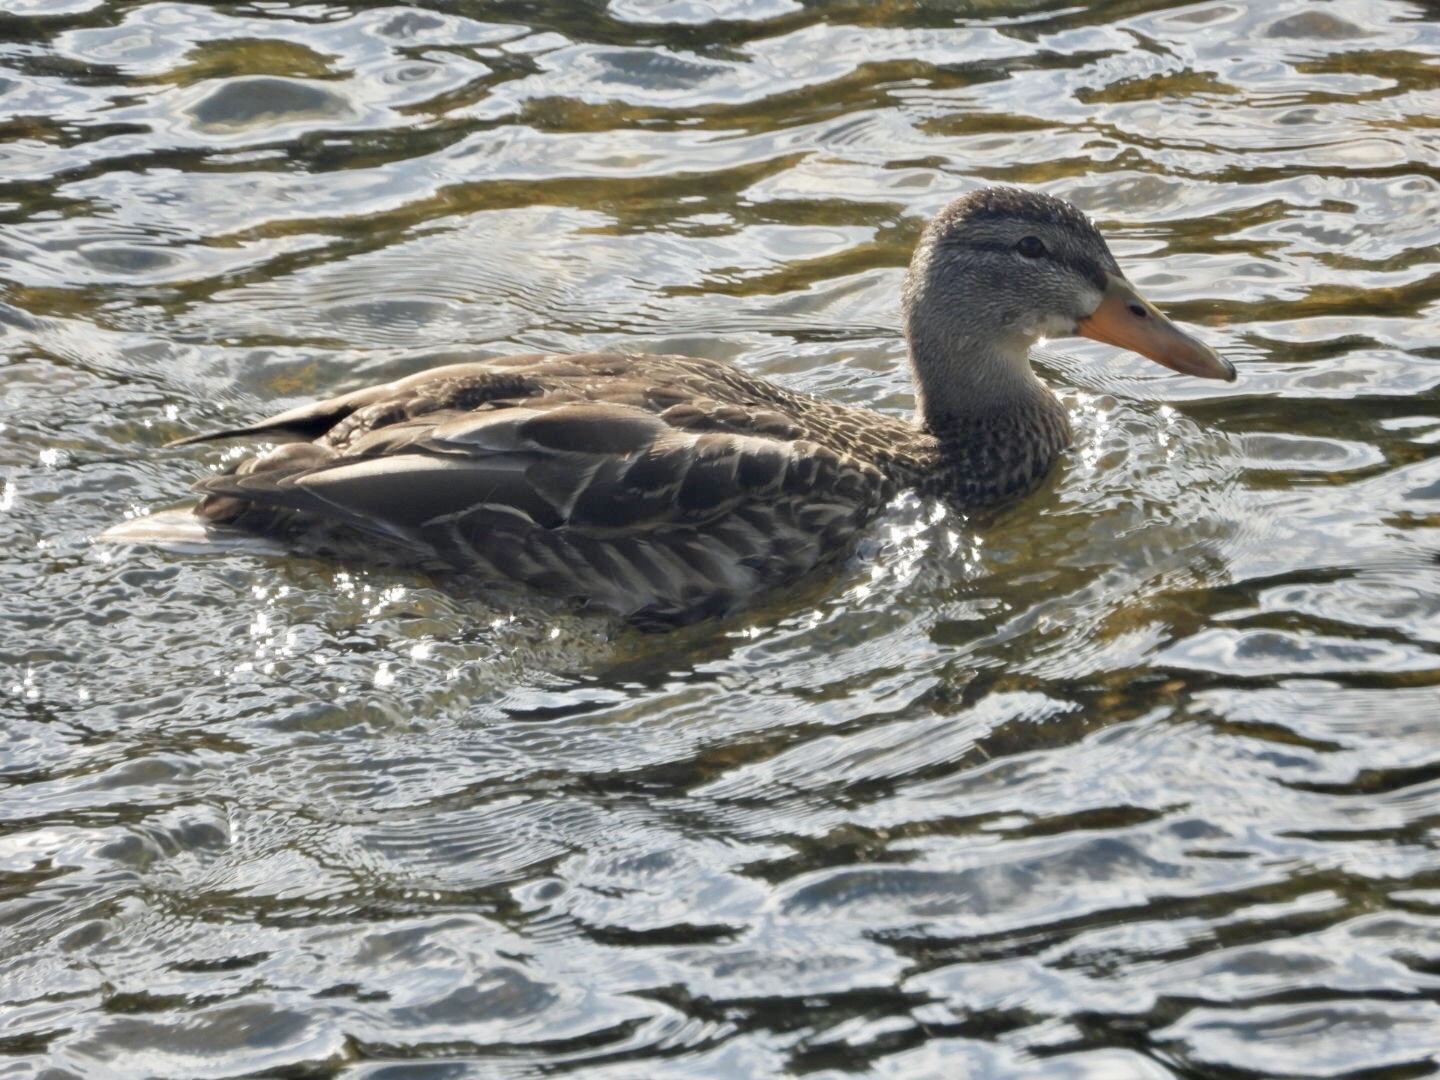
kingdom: Animalia
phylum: Chordata
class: Aves
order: Anseriformes
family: Anatidae
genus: Anas
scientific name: Anas platyrhynchos
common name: Mallard
